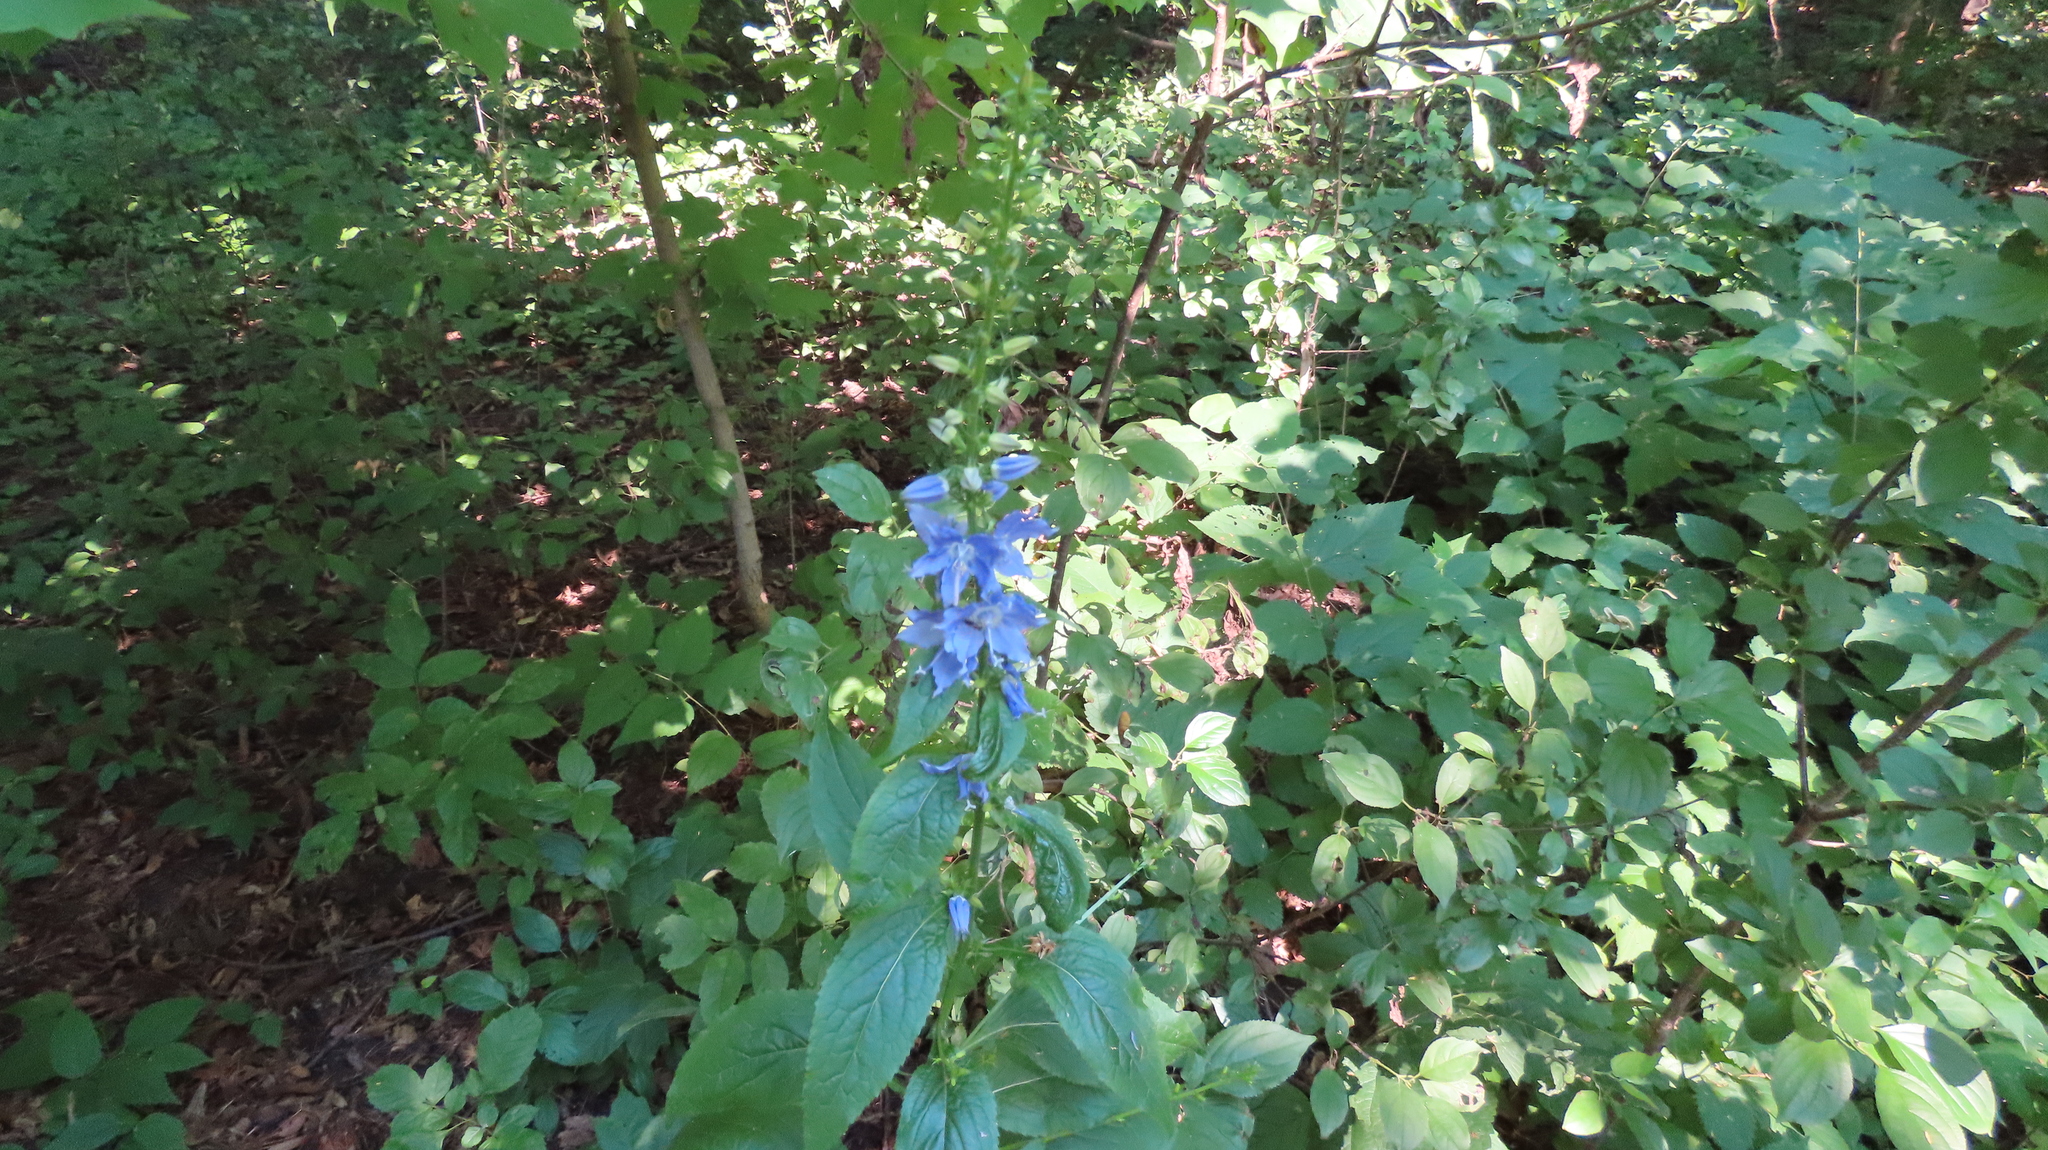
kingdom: Plantae
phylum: Tracheophyta
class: Magnoliopsida
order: Asterales
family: Campanulaceae
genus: Campanulastrum
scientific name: Campanulastrum americanum
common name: American bellflower
